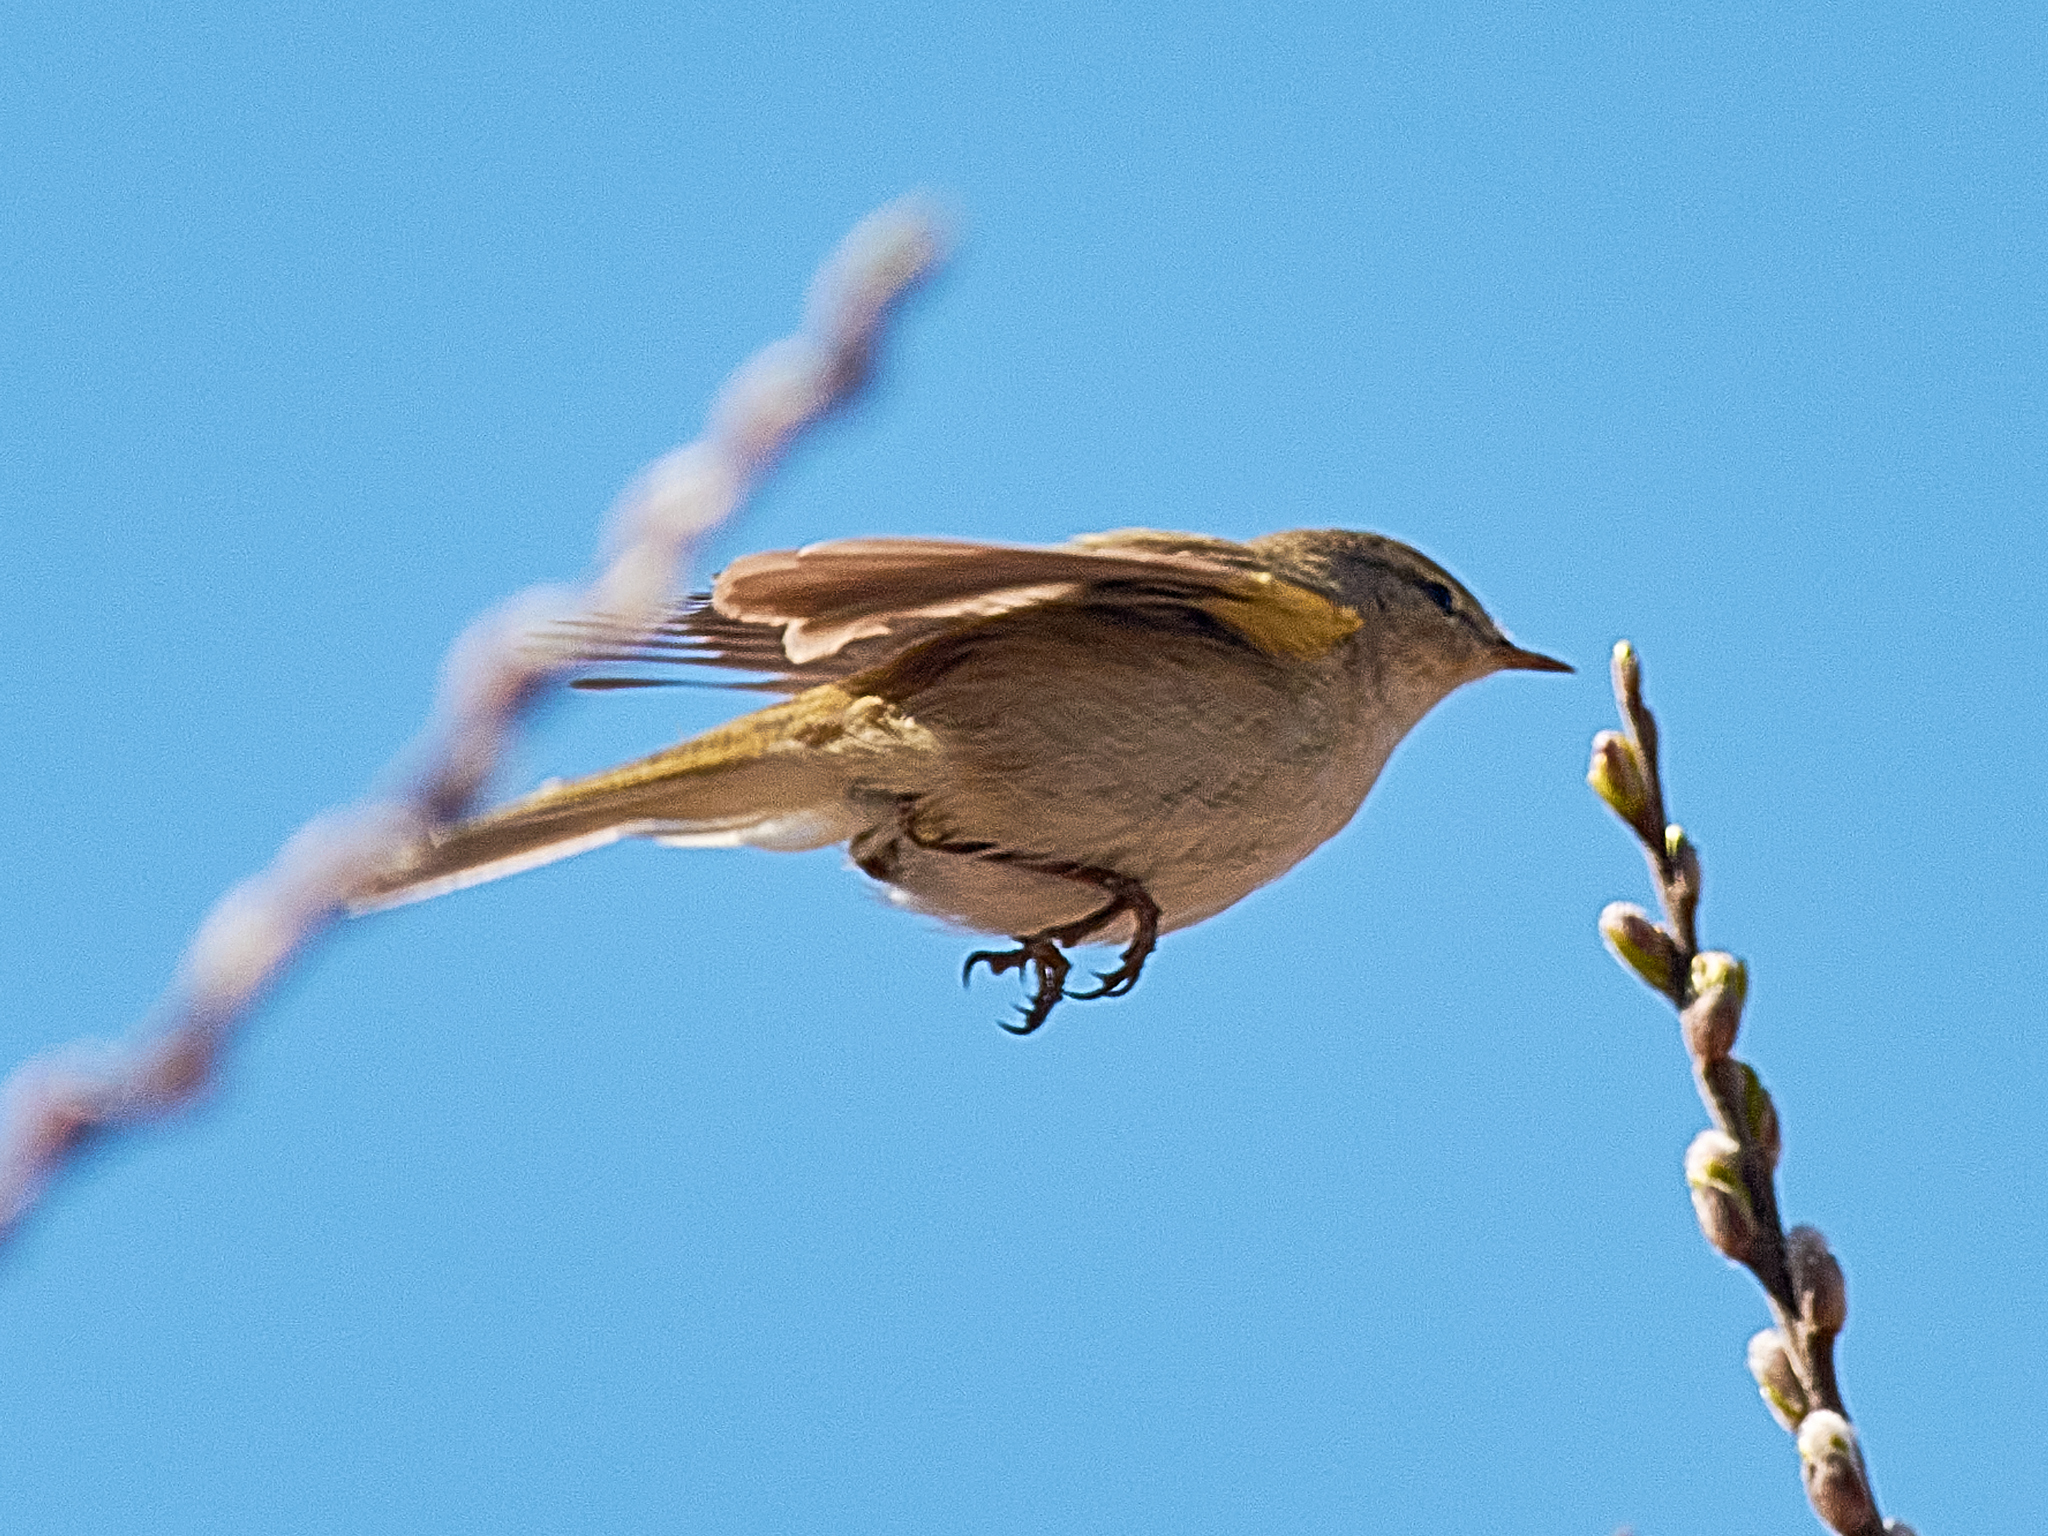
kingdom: Animalia
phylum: Chordata
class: Aves
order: Passeriformes
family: Phylloscopidae
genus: Phylloscopus
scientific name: Phylloscopus collybita
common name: Common chiffchaff
